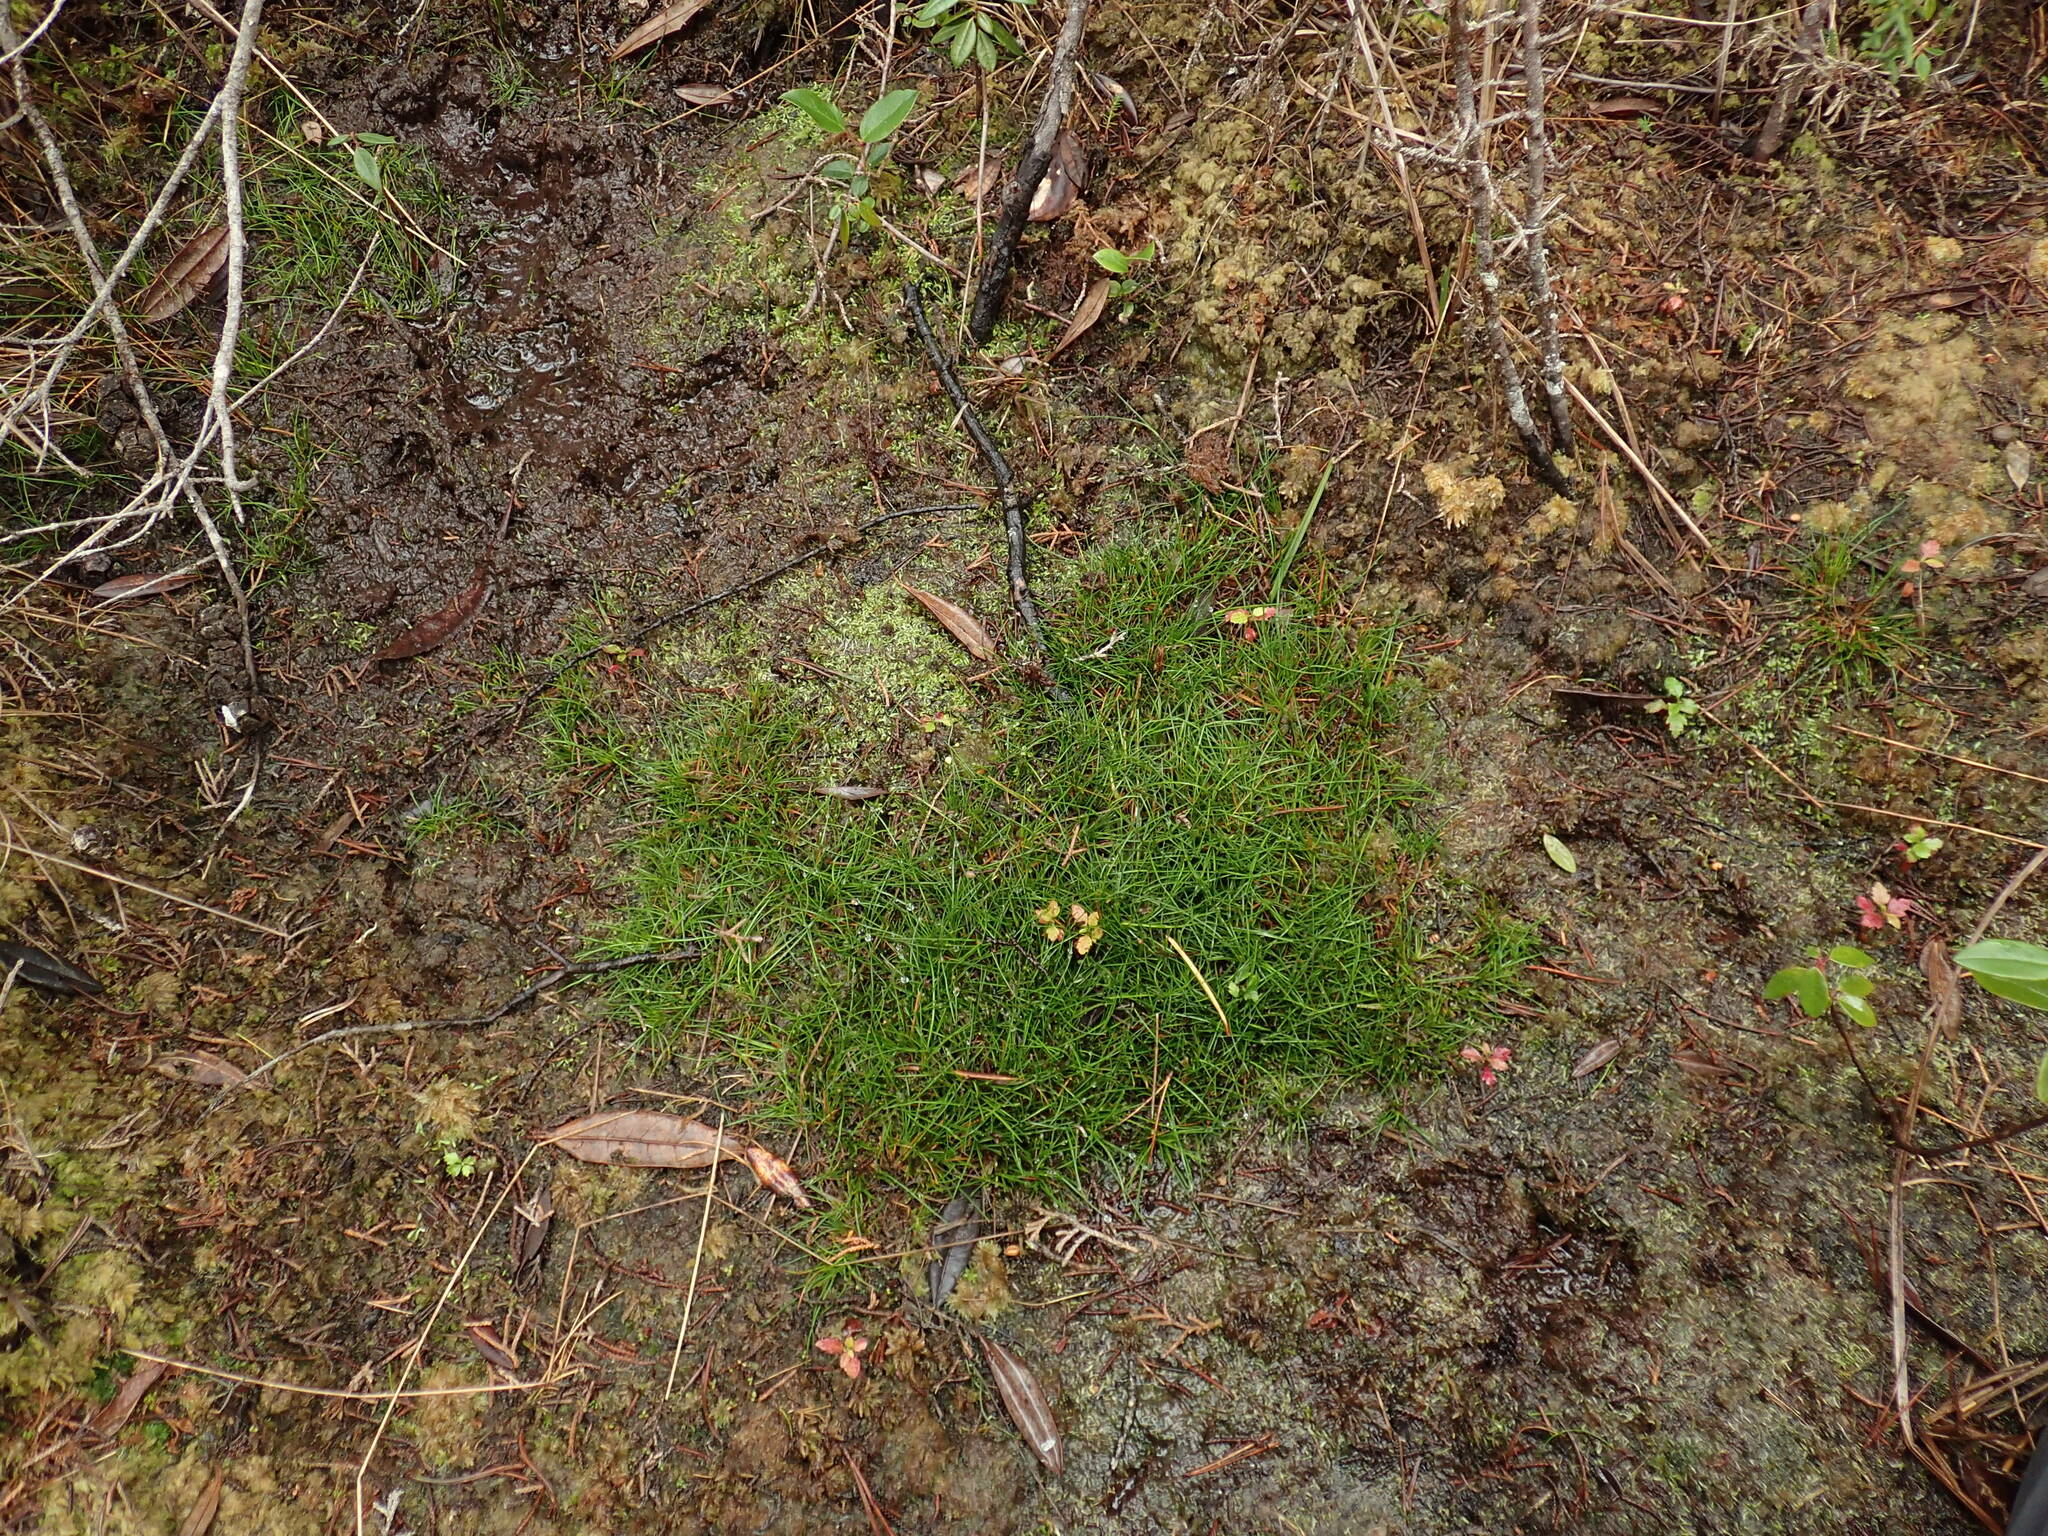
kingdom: Plantae
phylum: Tracheophyta
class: Magnoliopsida
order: Lamiales
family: Lentibulariaceae
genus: Utricularia
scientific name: Utricularia bisquamata
